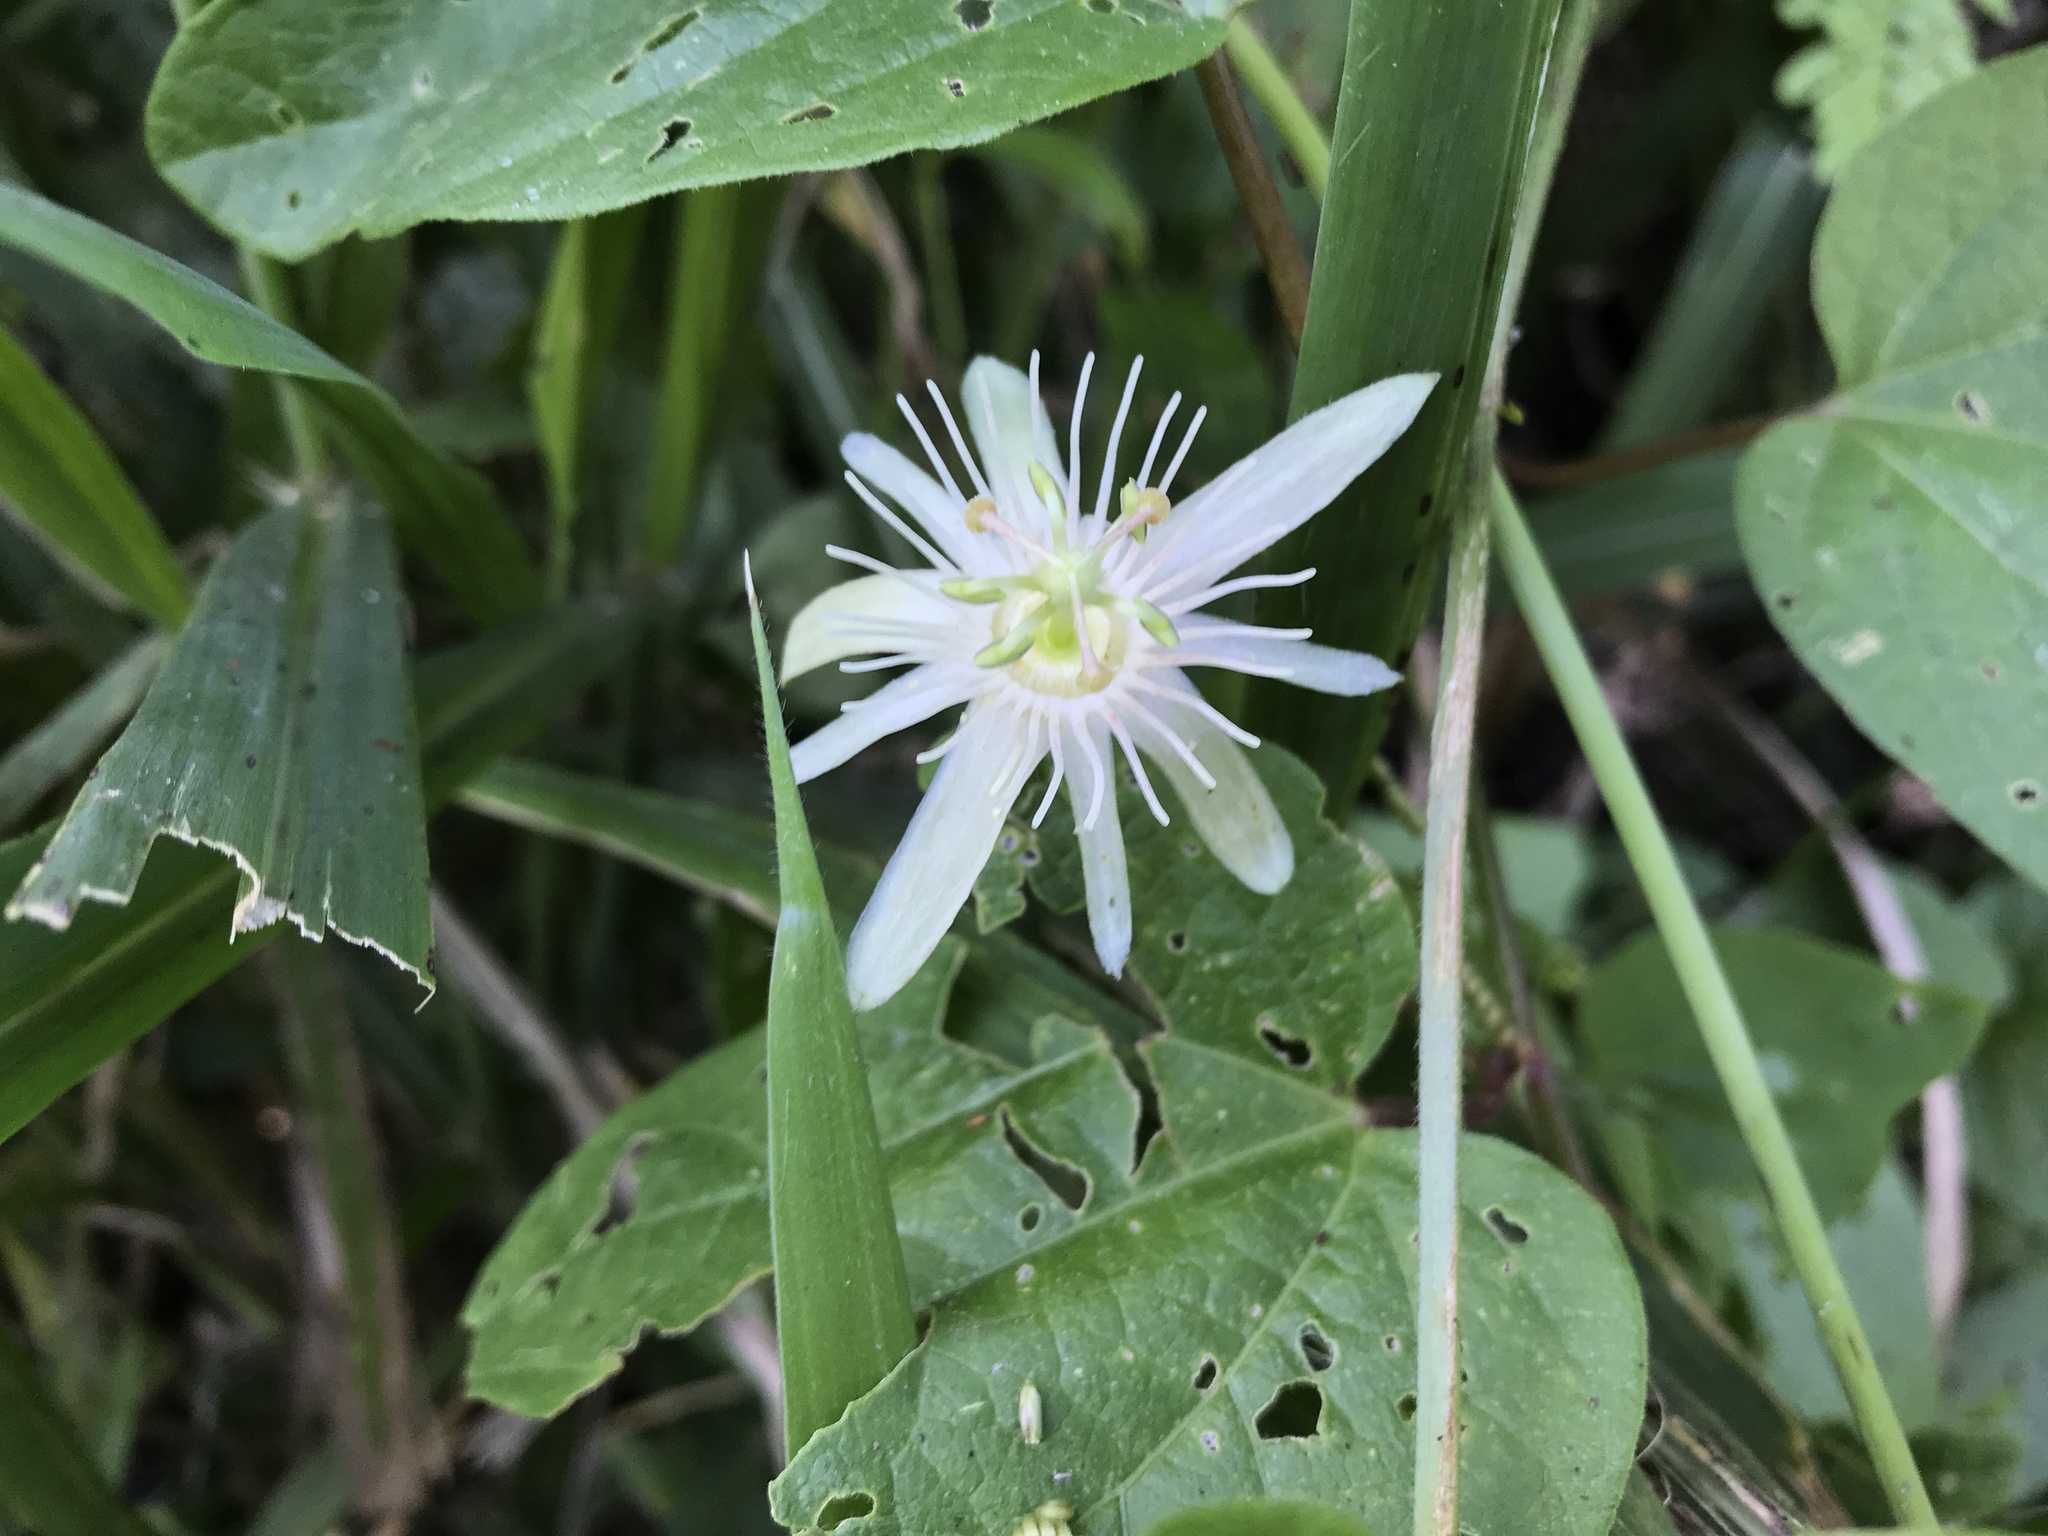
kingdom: Plantae
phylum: Tracheophyta
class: Magnoliopsida
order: Malpighiales
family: Passifloraceae
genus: Passiflora
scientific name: Passiflora capsularis
